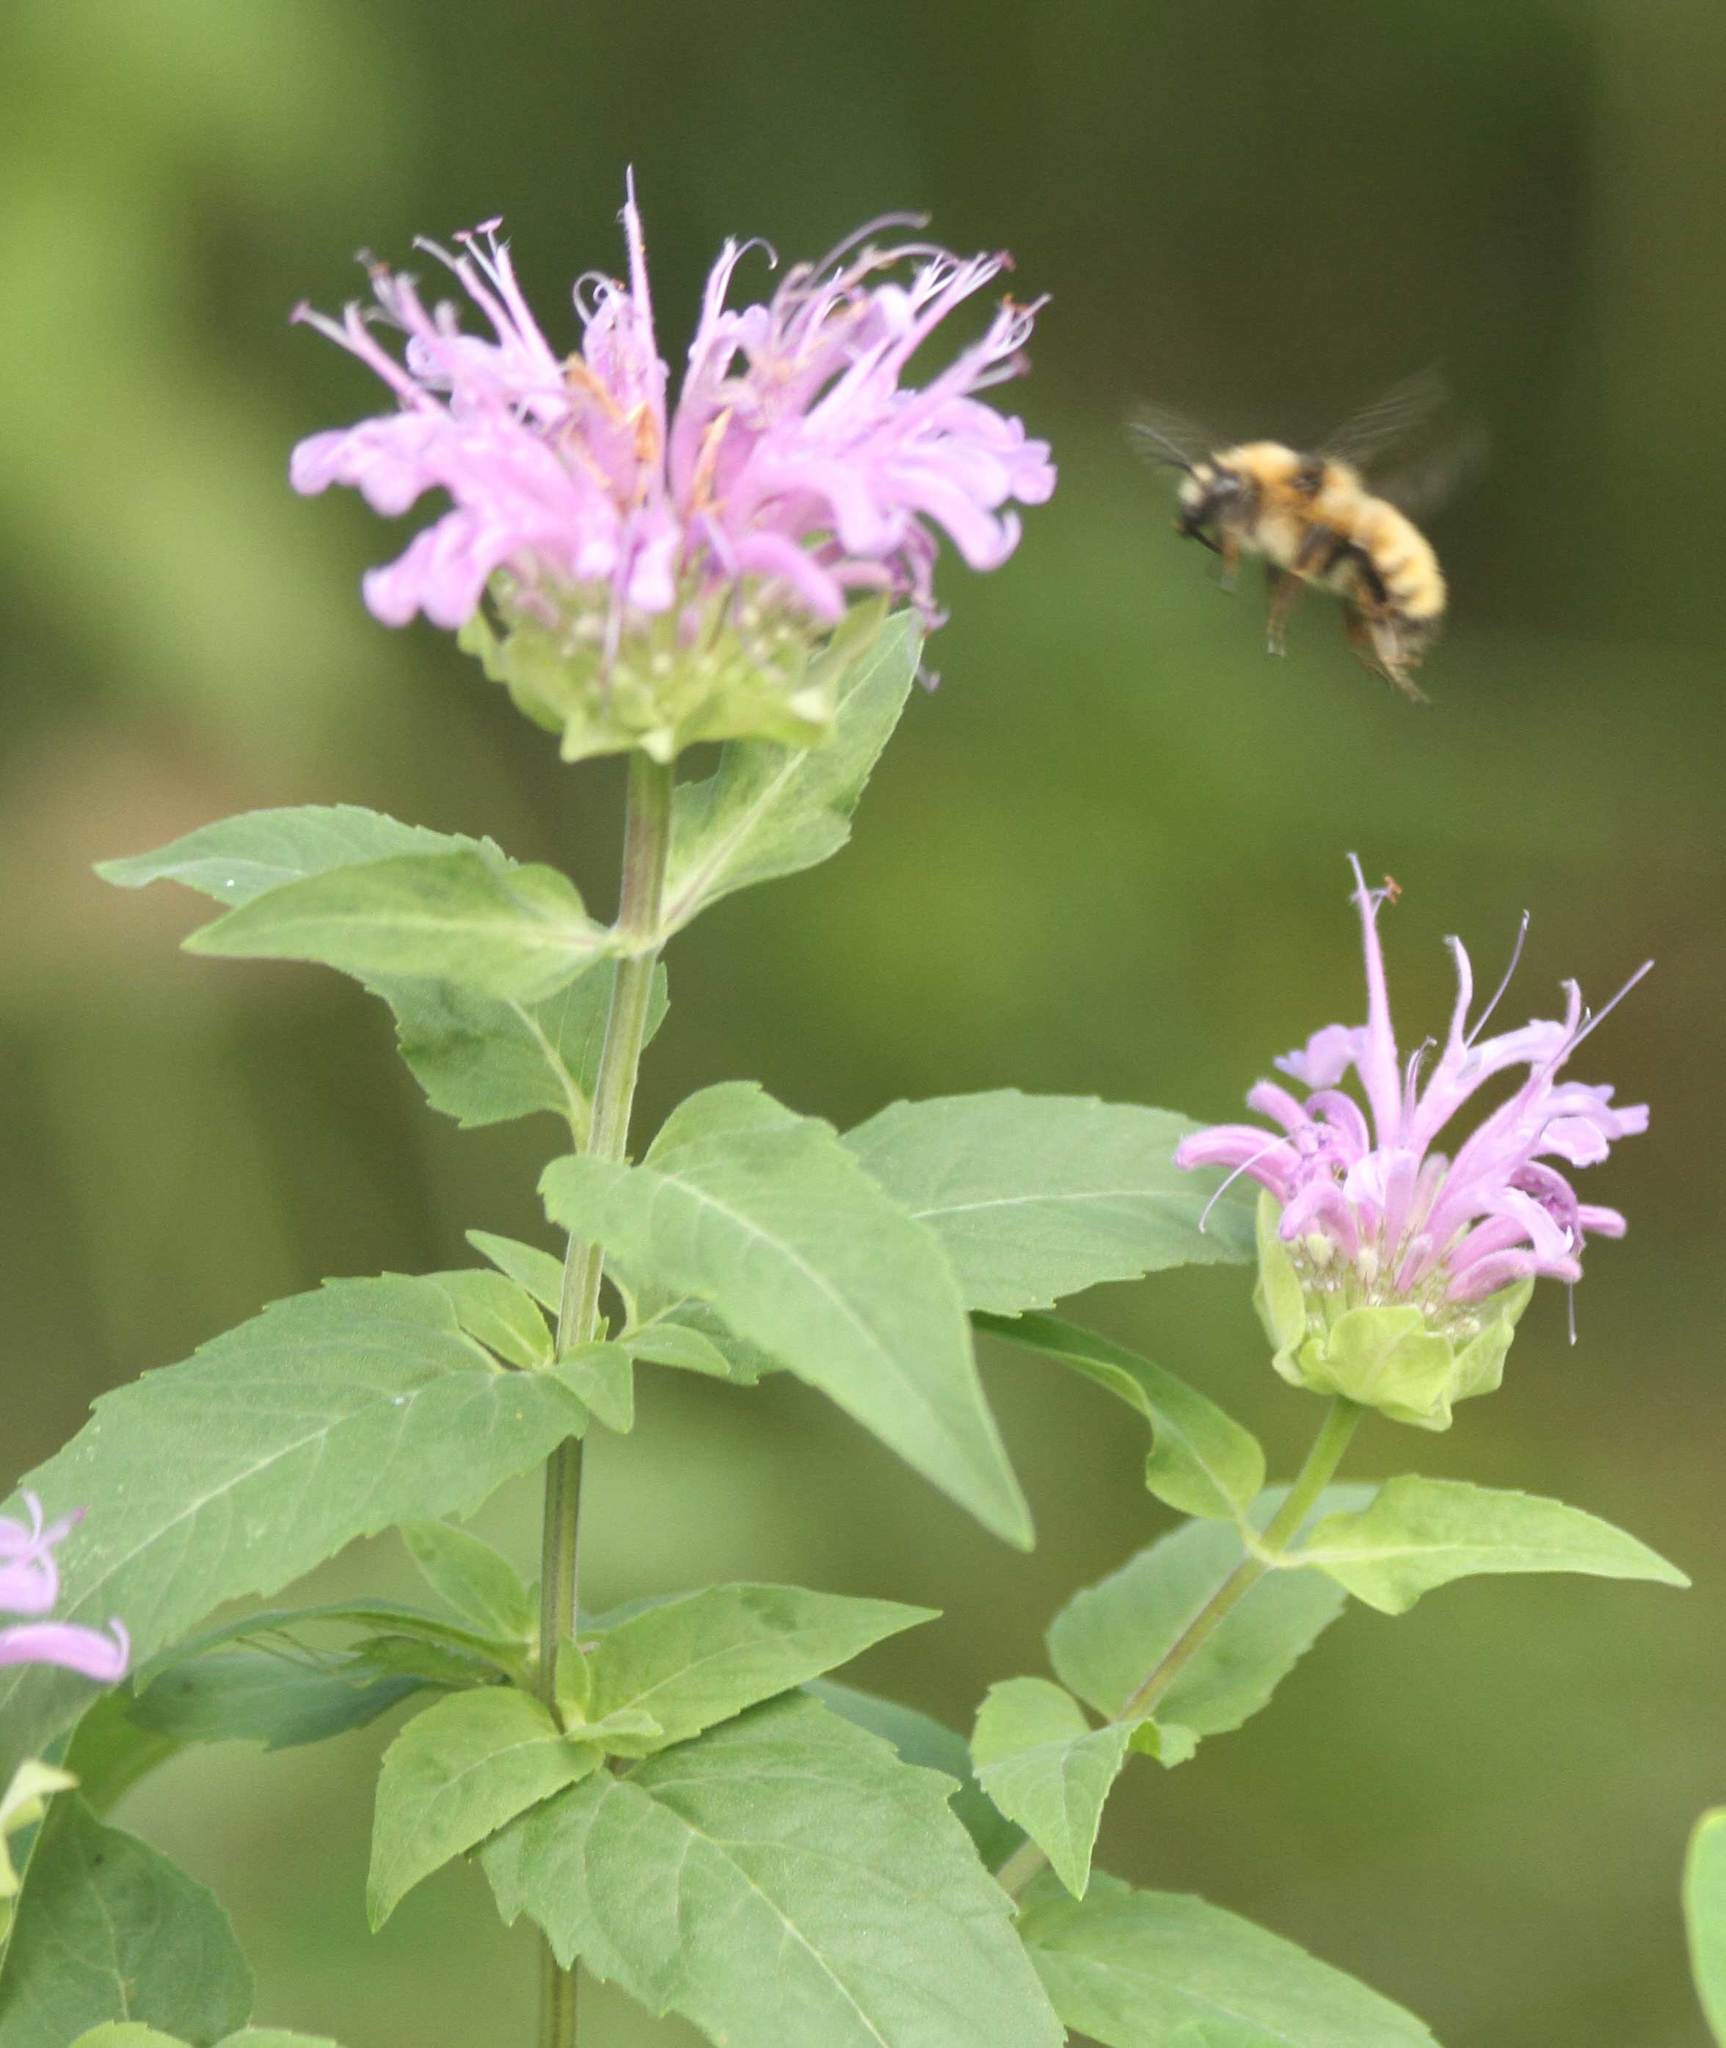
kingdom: Plantae
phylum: Tracheophyta
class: Magnoliopsida
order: Lamiales
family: Lamiaceae
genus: Monarda
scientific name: Monarda fistulosa
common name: Purple beebalm
